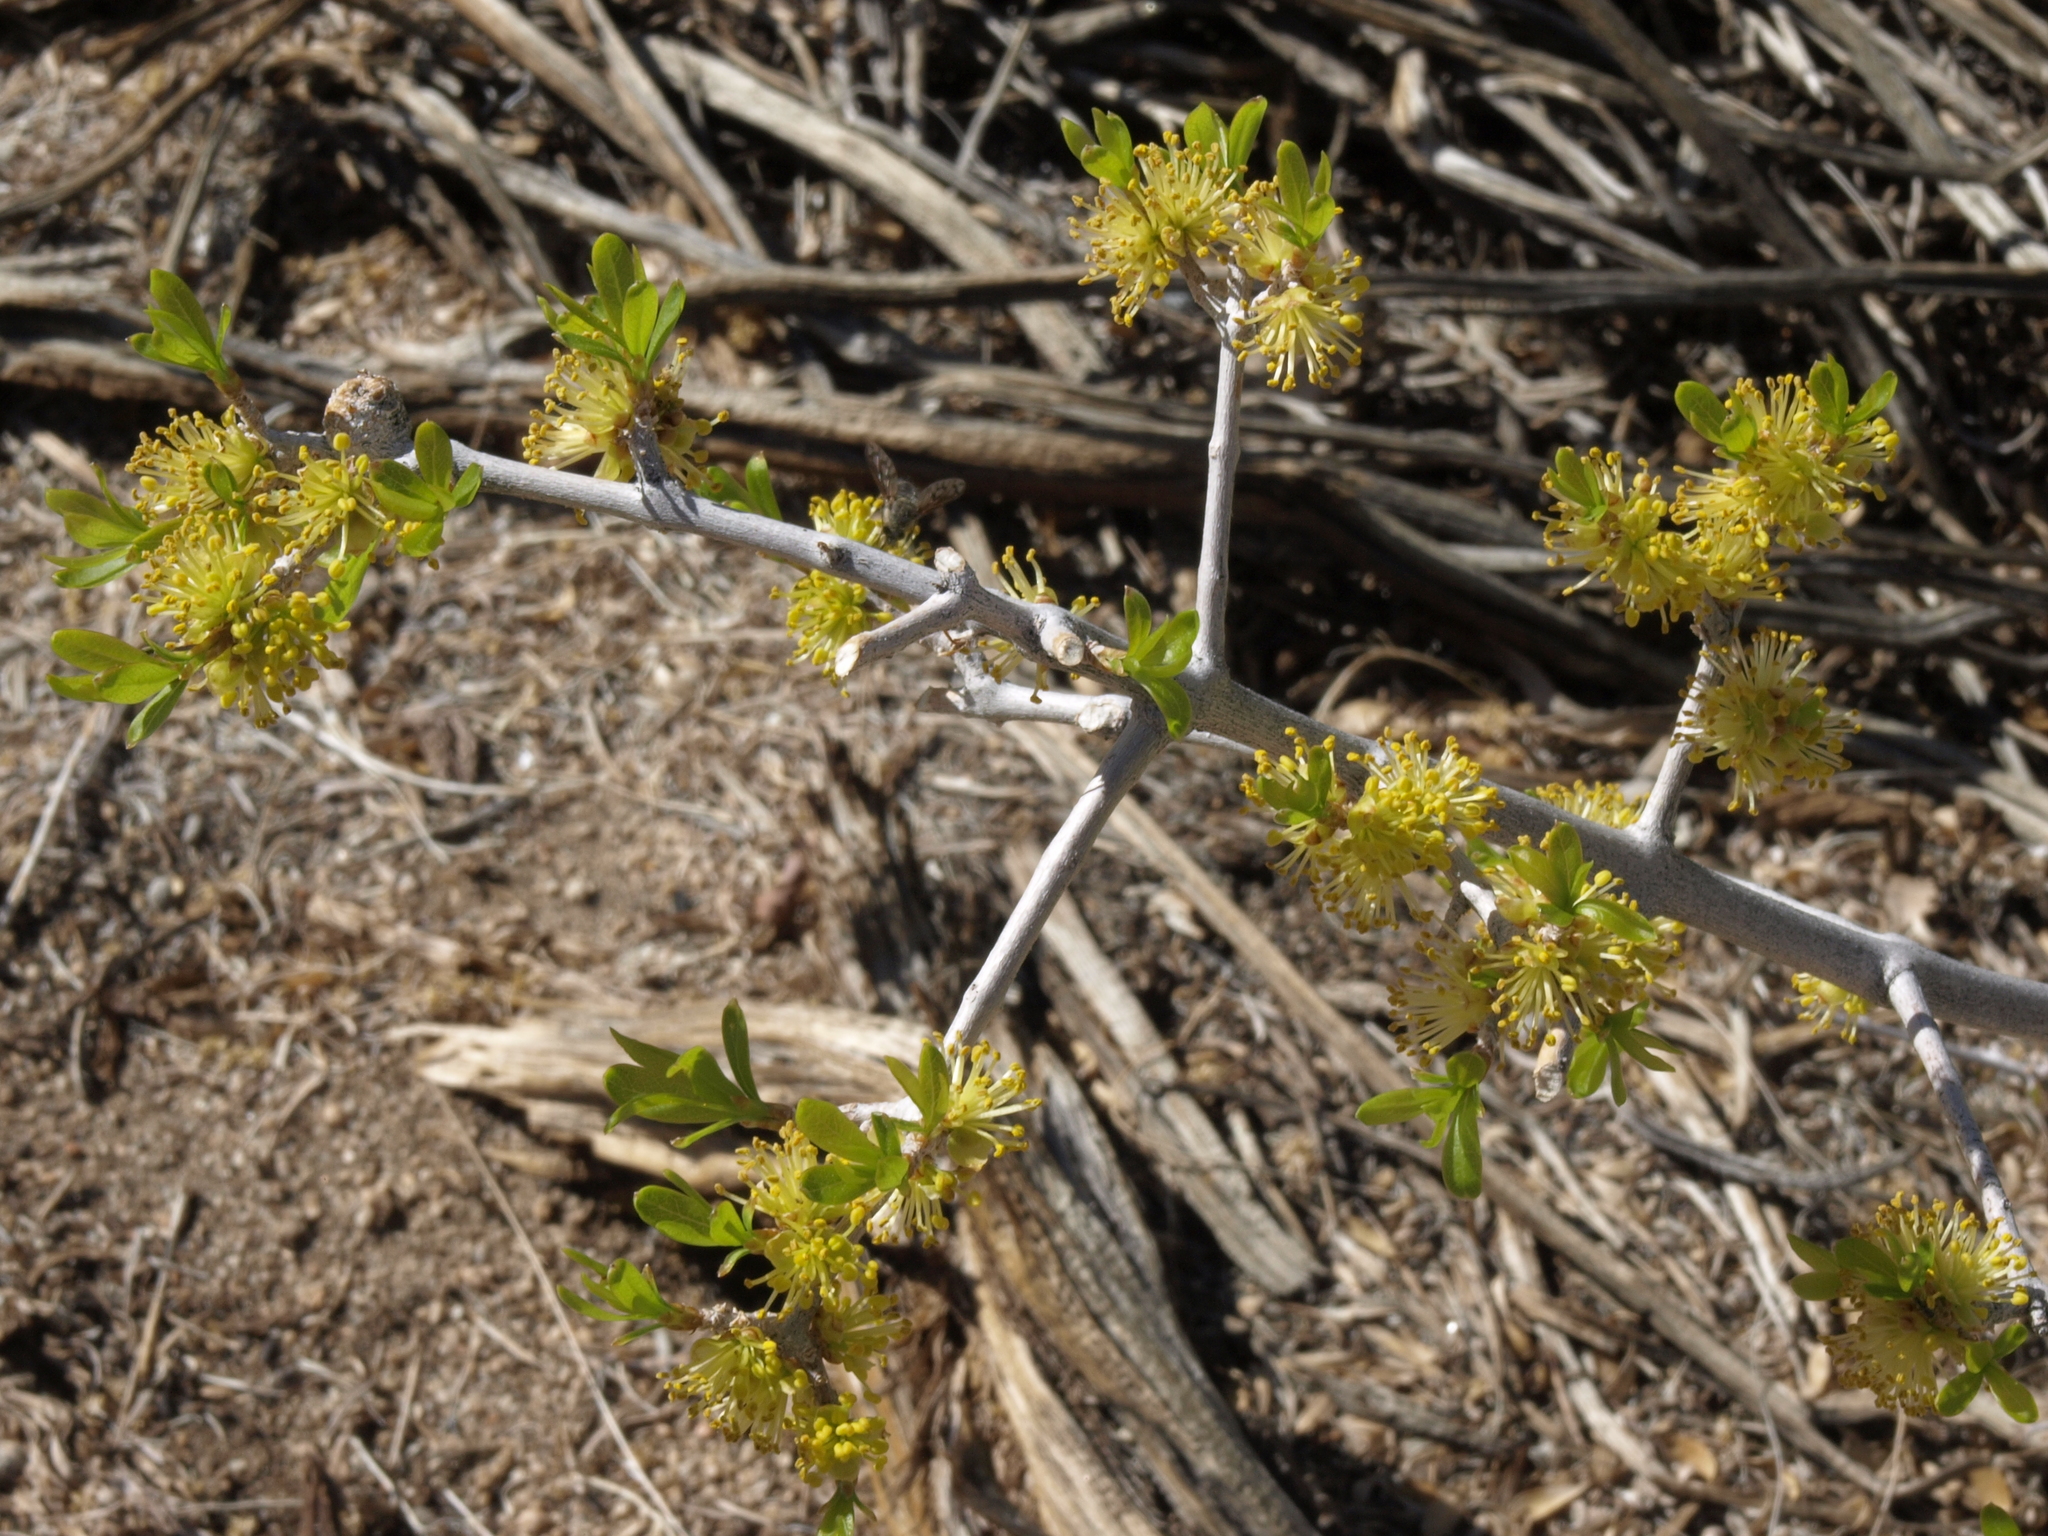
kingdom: Plantae
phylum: Tracheophyta
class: Magnoliopsida
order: Lamiales
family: Oleaceae
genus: Forestiera
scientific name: Forestiera pubescens
